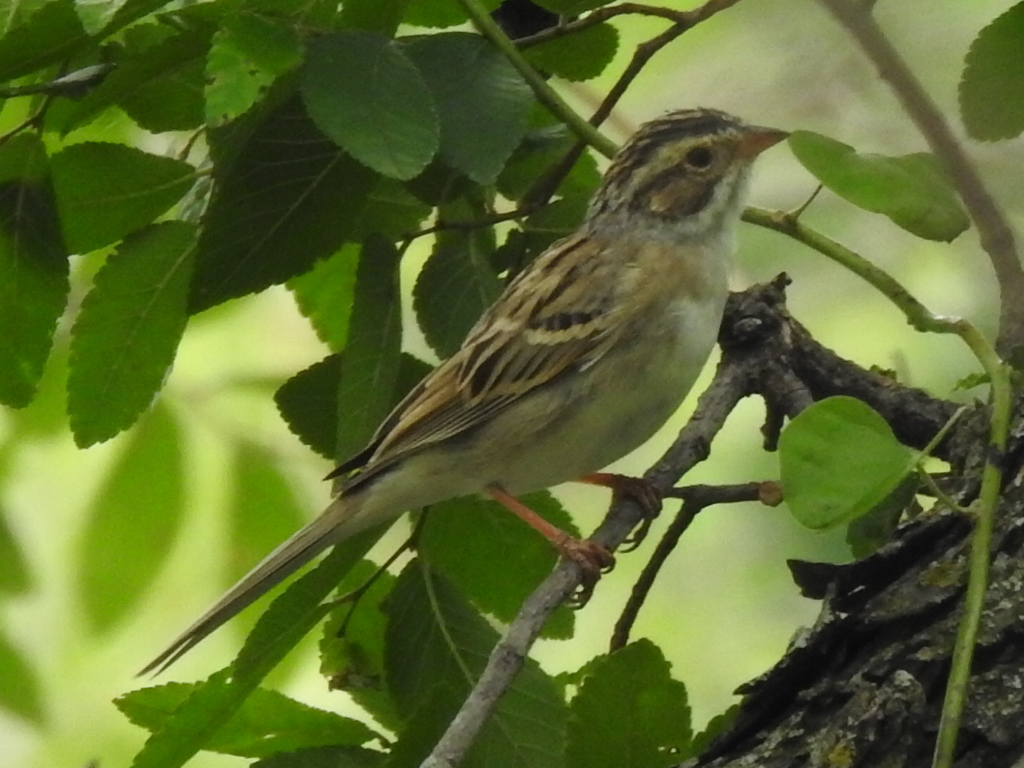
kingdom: Animalia
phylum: Chordata
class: Aves
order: Passeriformes
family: Passerellidae
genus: Spizella
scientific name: Spizella pallida
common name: Clay-colored sparrow
